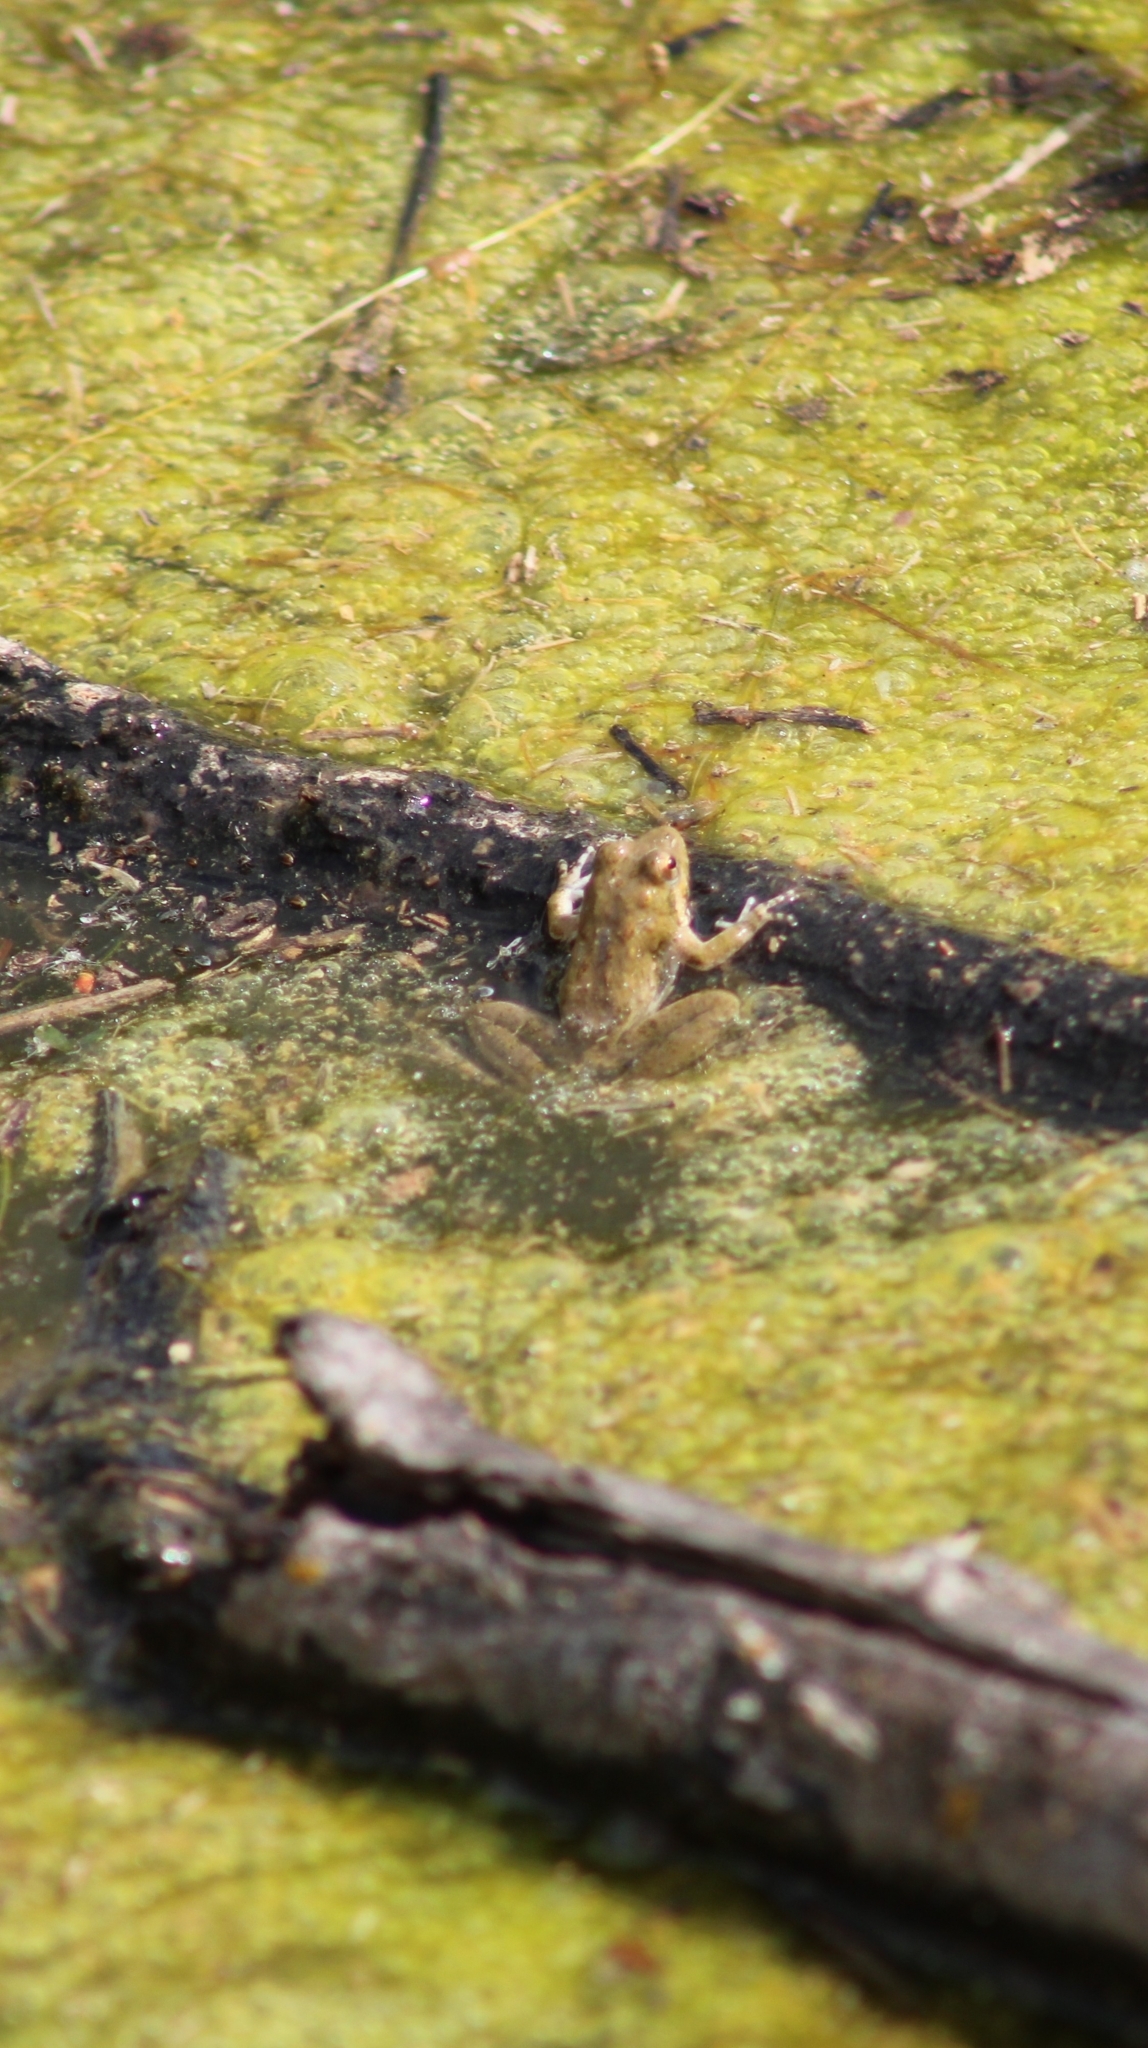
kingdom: Animalia
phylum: Chordata
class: Amphibia
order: Anura
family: Hylidae
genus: Acris
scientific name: Acris blanchardi
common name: Blanchard's cricket frog
